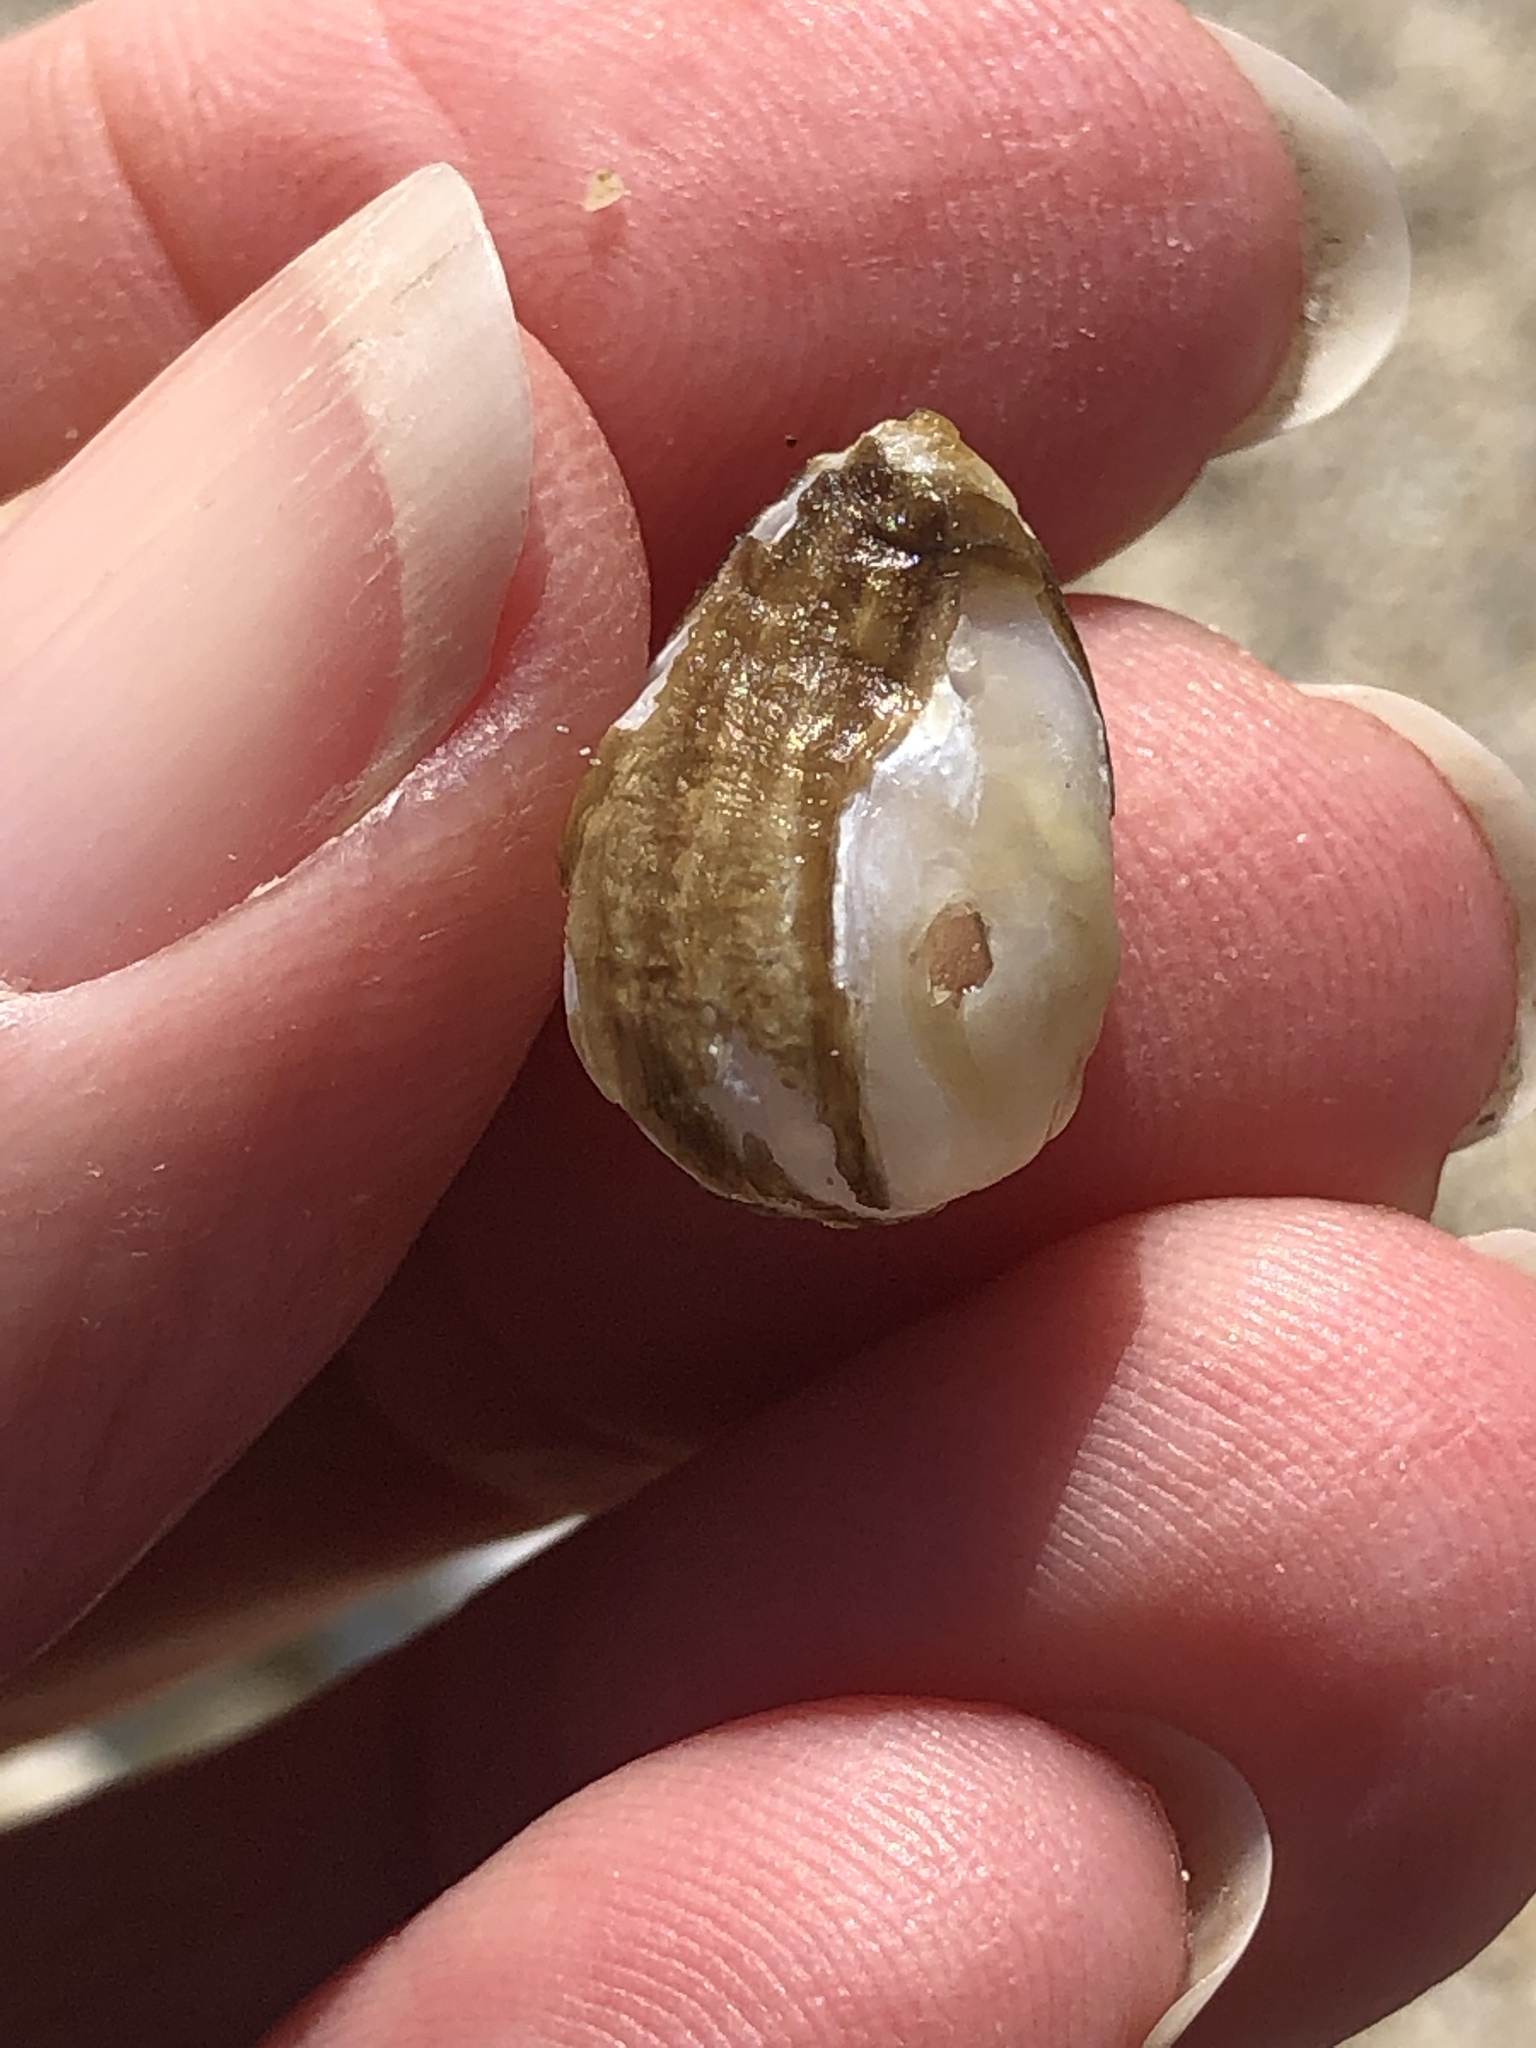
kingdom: Animalia
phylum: Mollusca
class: Bivalvia
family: Lyonsiidae
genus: Entodesma
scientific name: Entodesma navicula
